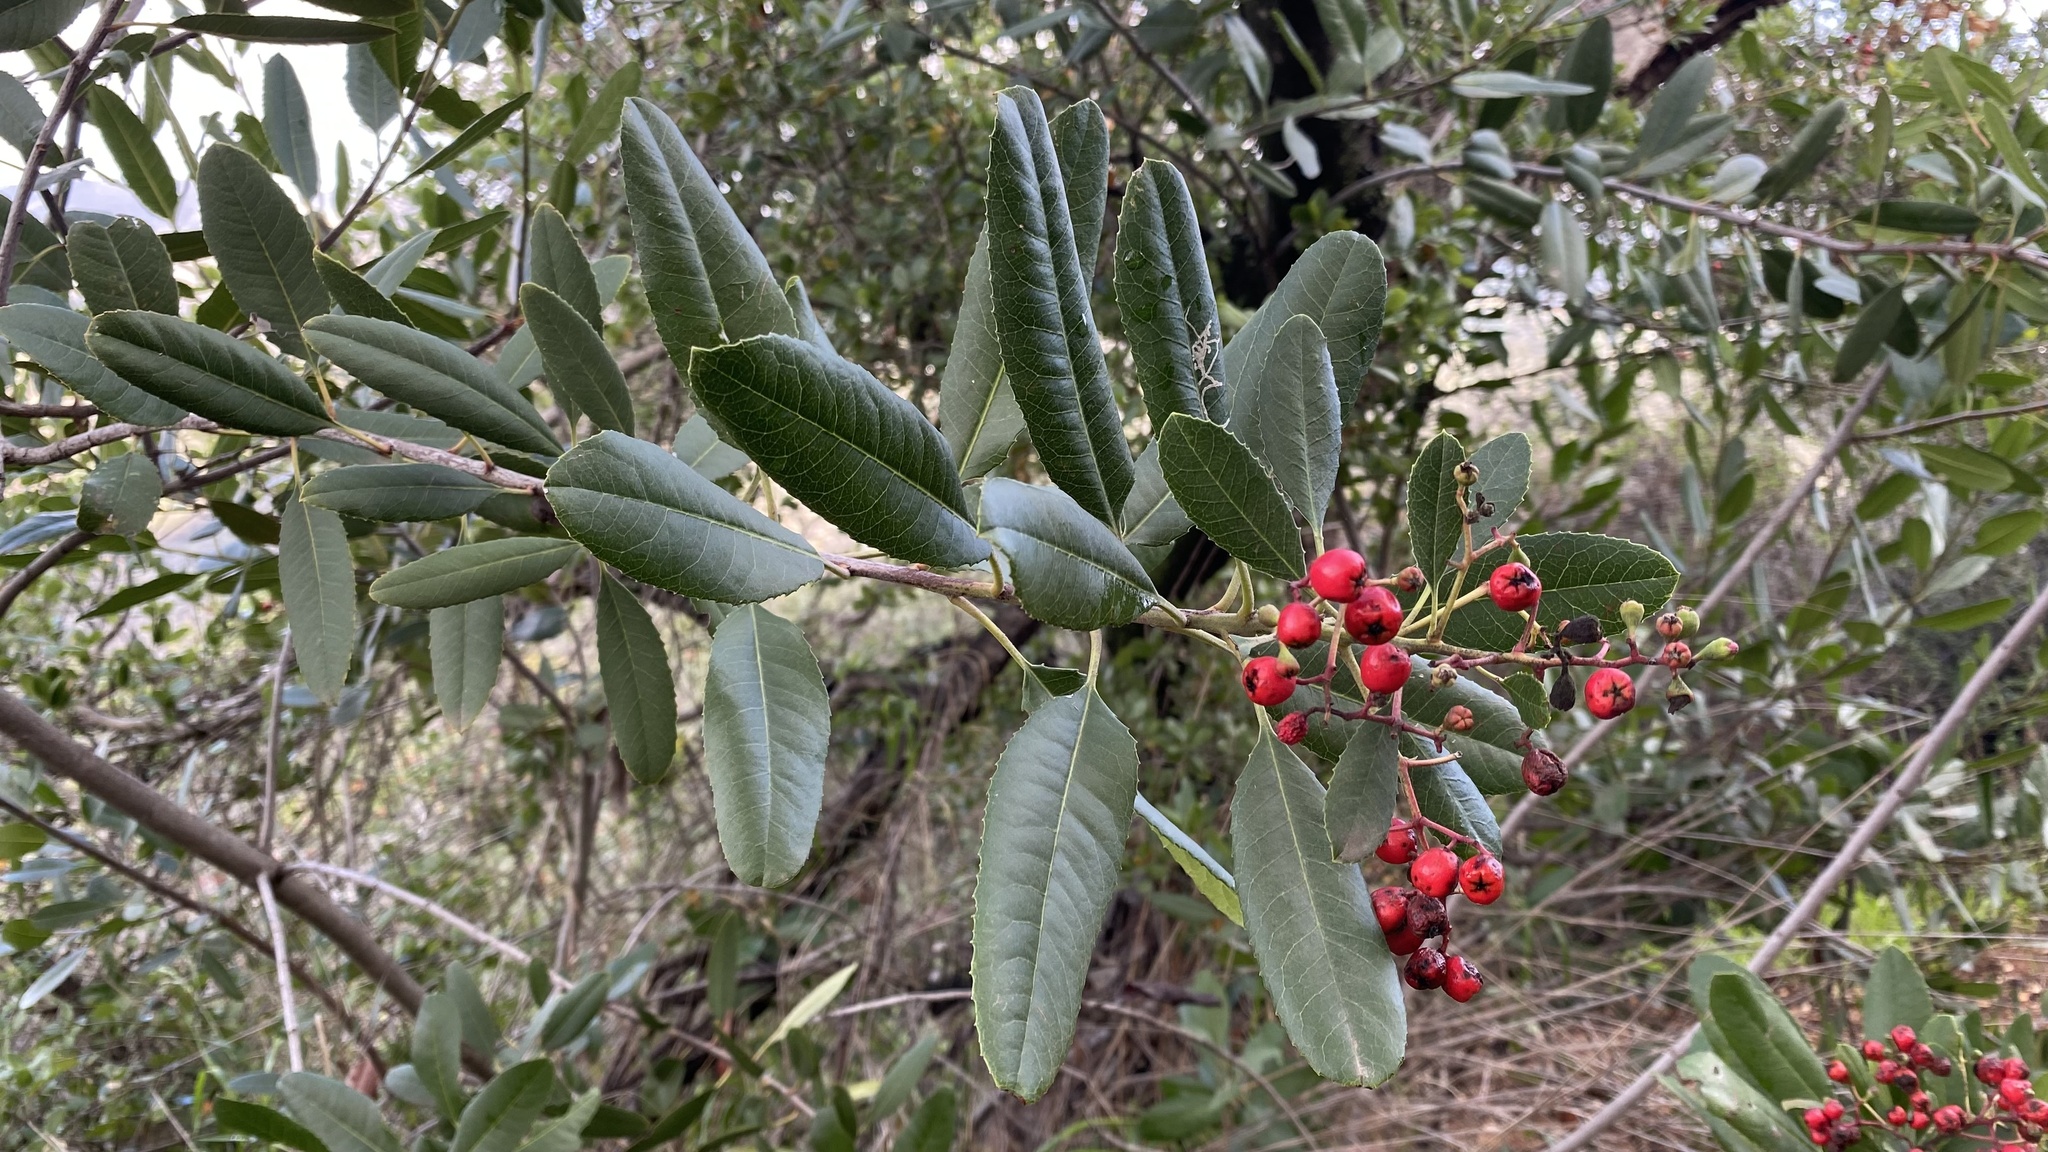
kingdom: Plantae
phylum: Tracheophyta
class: Magnoliopsida
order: Rosales
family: Rosaceae
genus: Heteromeles
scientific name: Heteromeles arbutifolia
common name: California-holly
